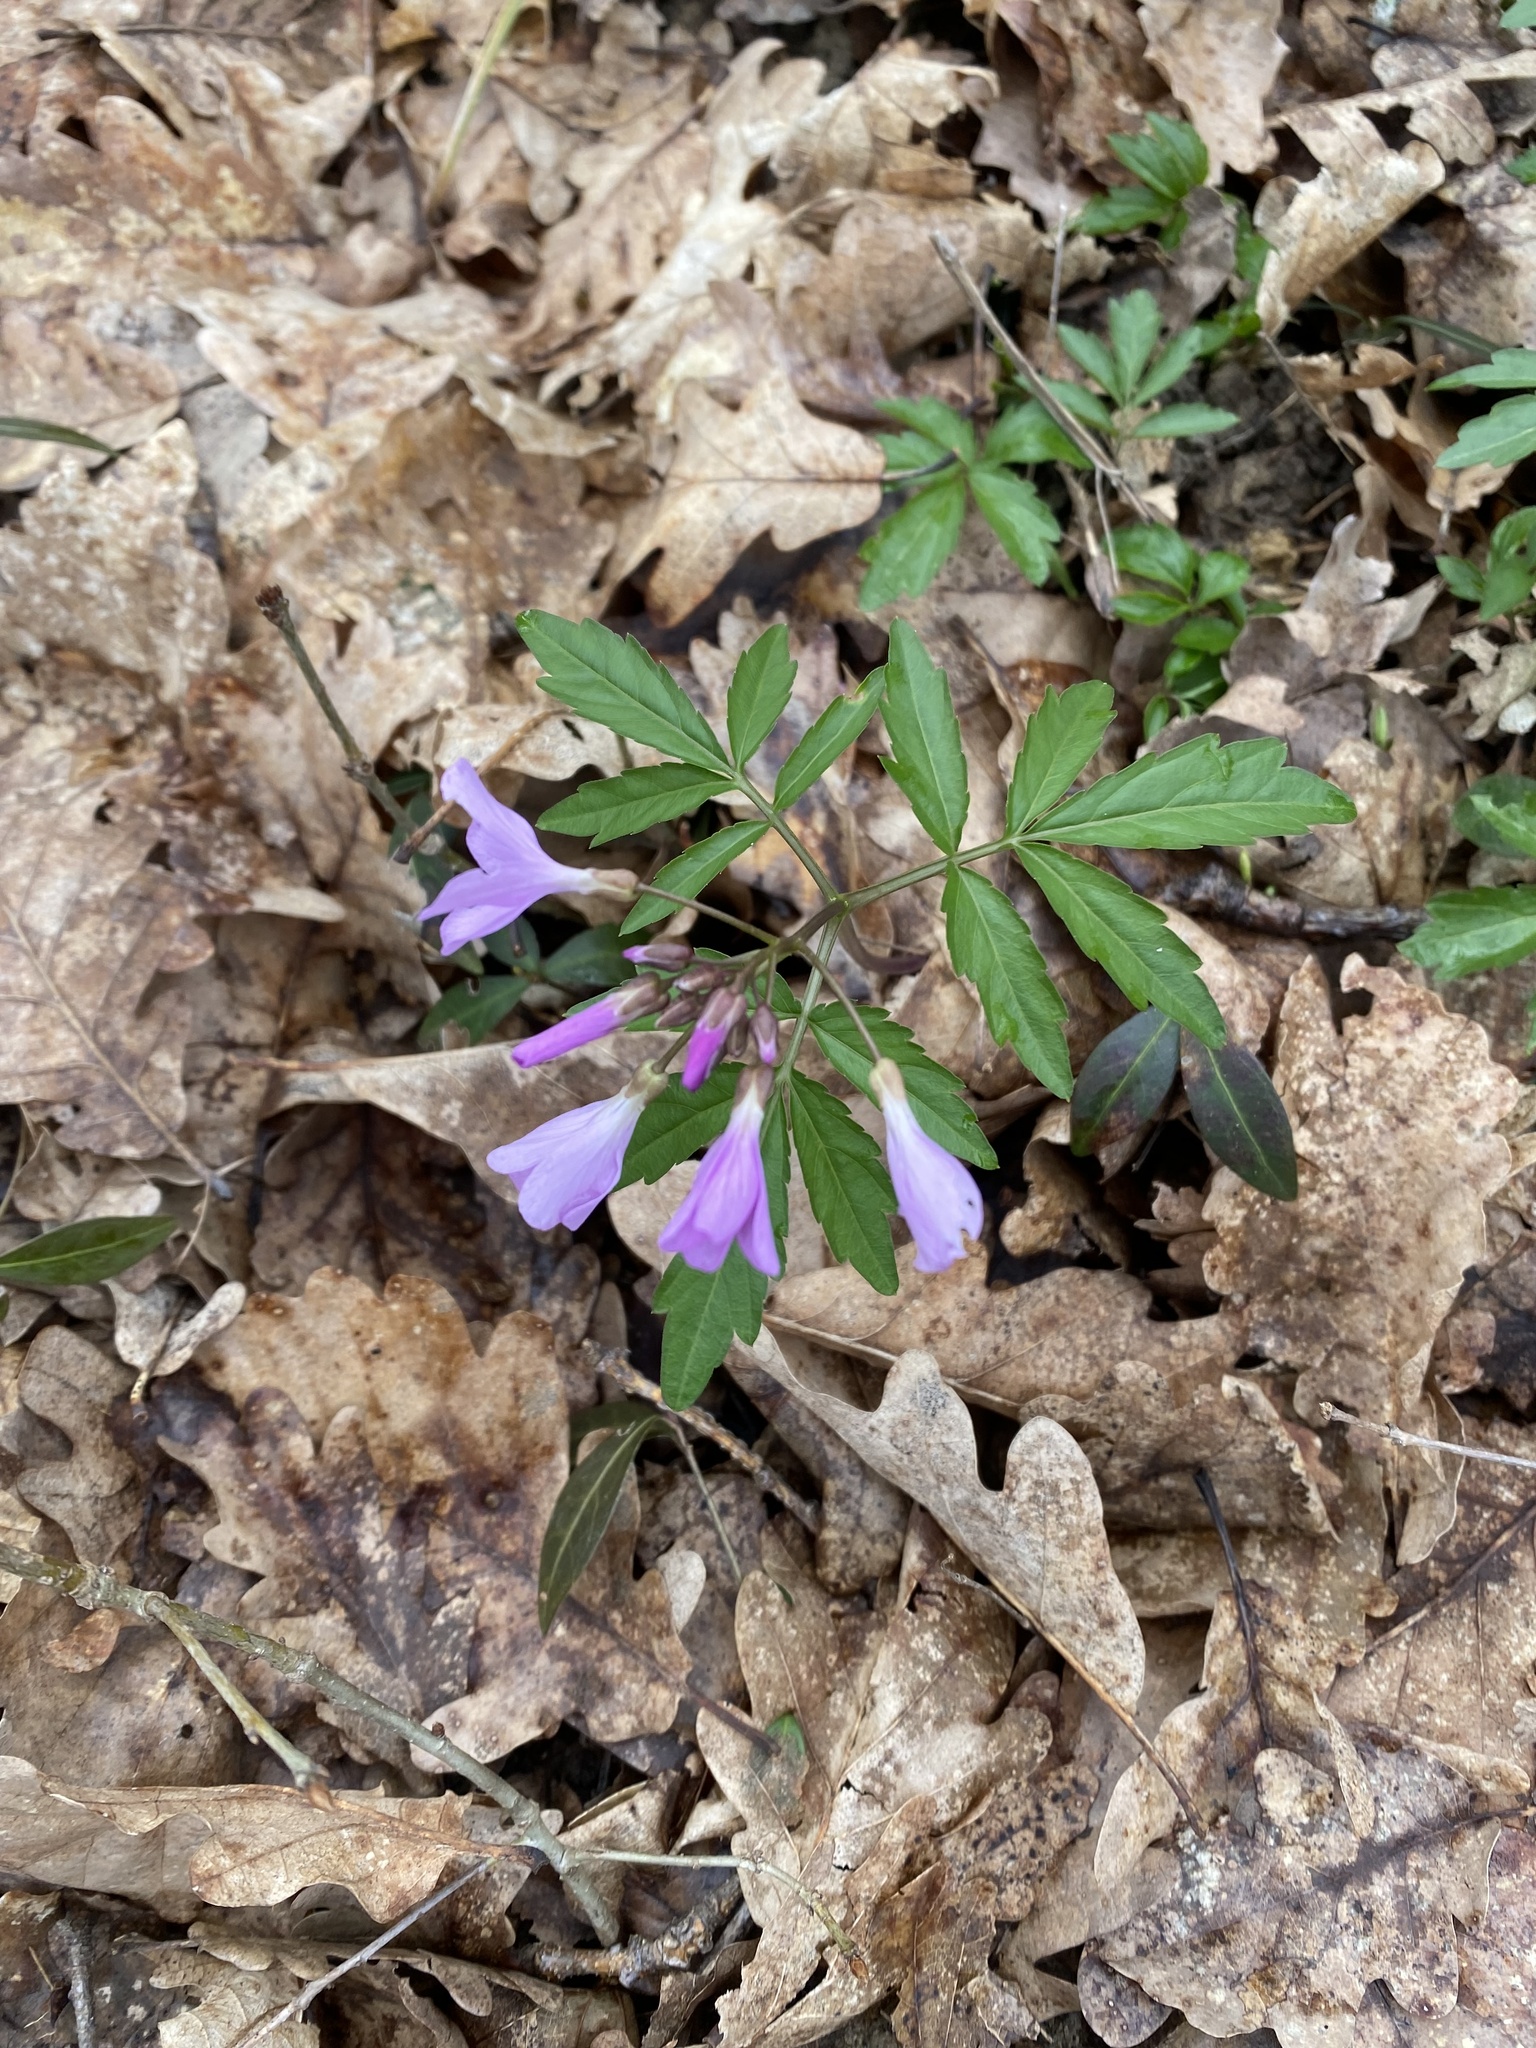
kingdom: Plantae
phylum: Tracheophyta
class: Magnoliopsida
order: Brassicales
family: Brassicaceae
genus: Cardamine
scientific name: Cardamine quinquefolia
